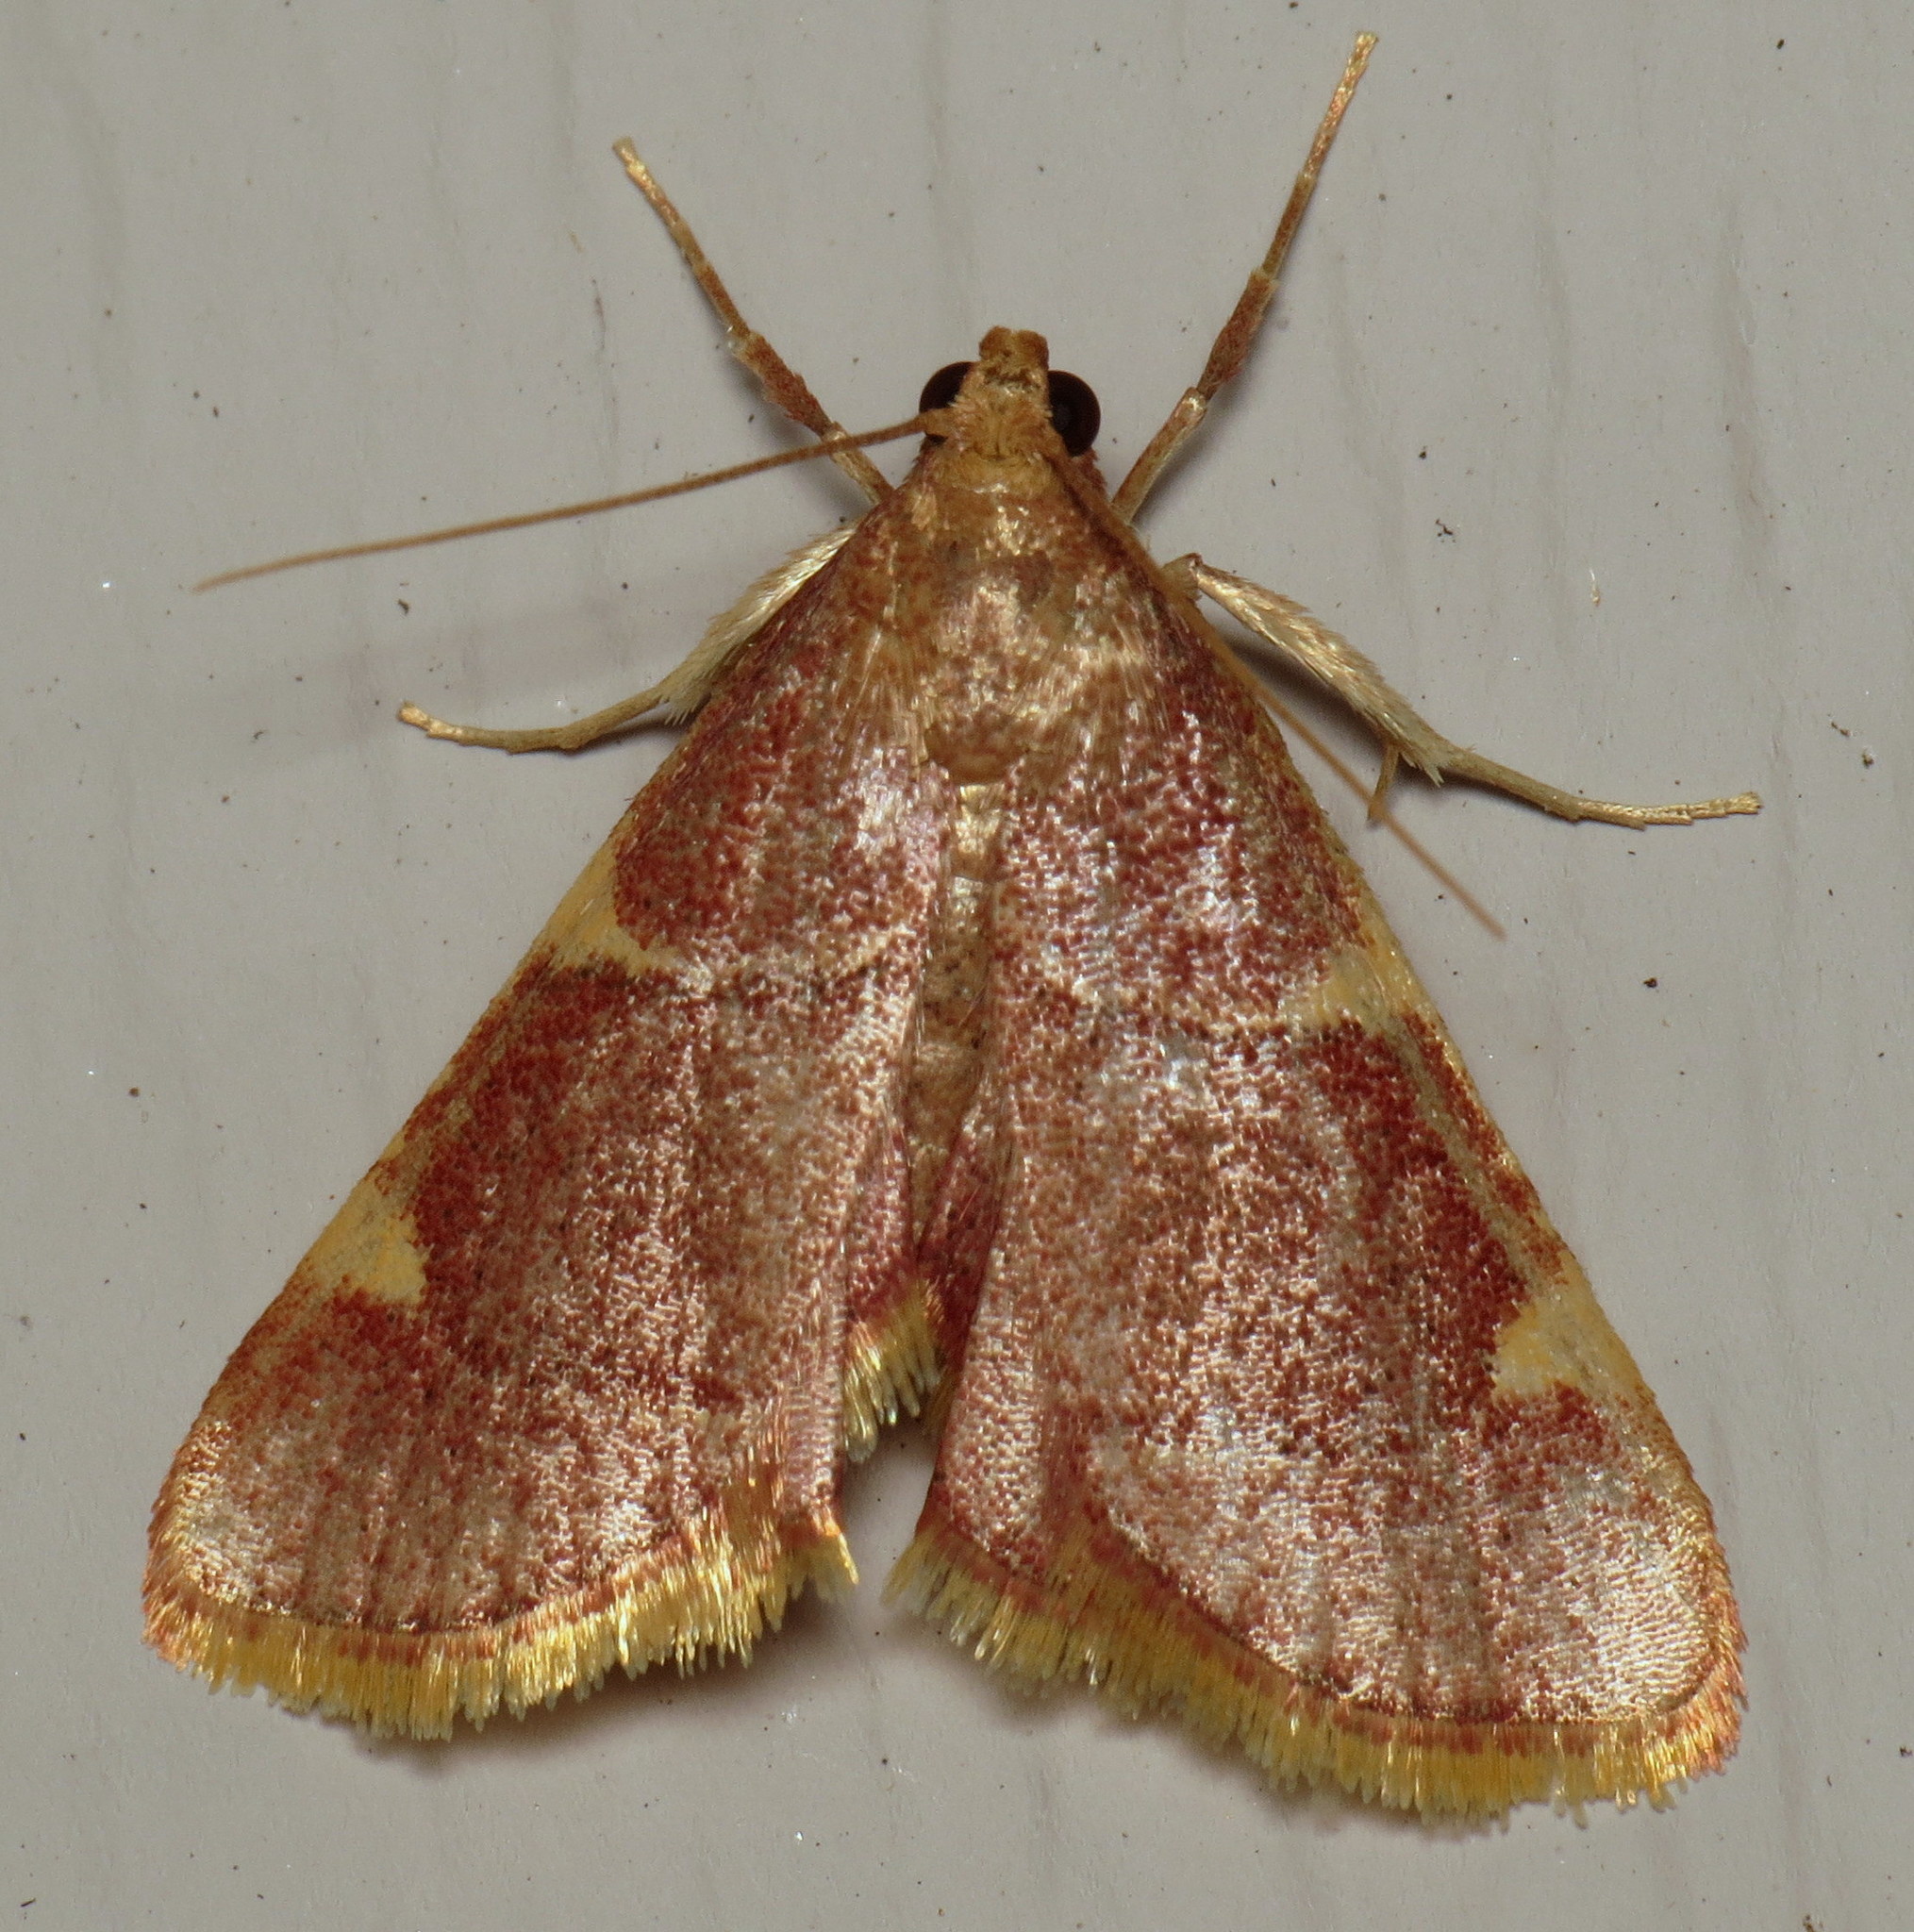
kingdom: Animalia
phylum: Arthropoda
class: Insecta
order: Lepidoptera
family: Pyralidae
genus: Hypsopygia
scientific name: Hypsopygia olinalis
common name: Yellow-fringed dolichomia moth
